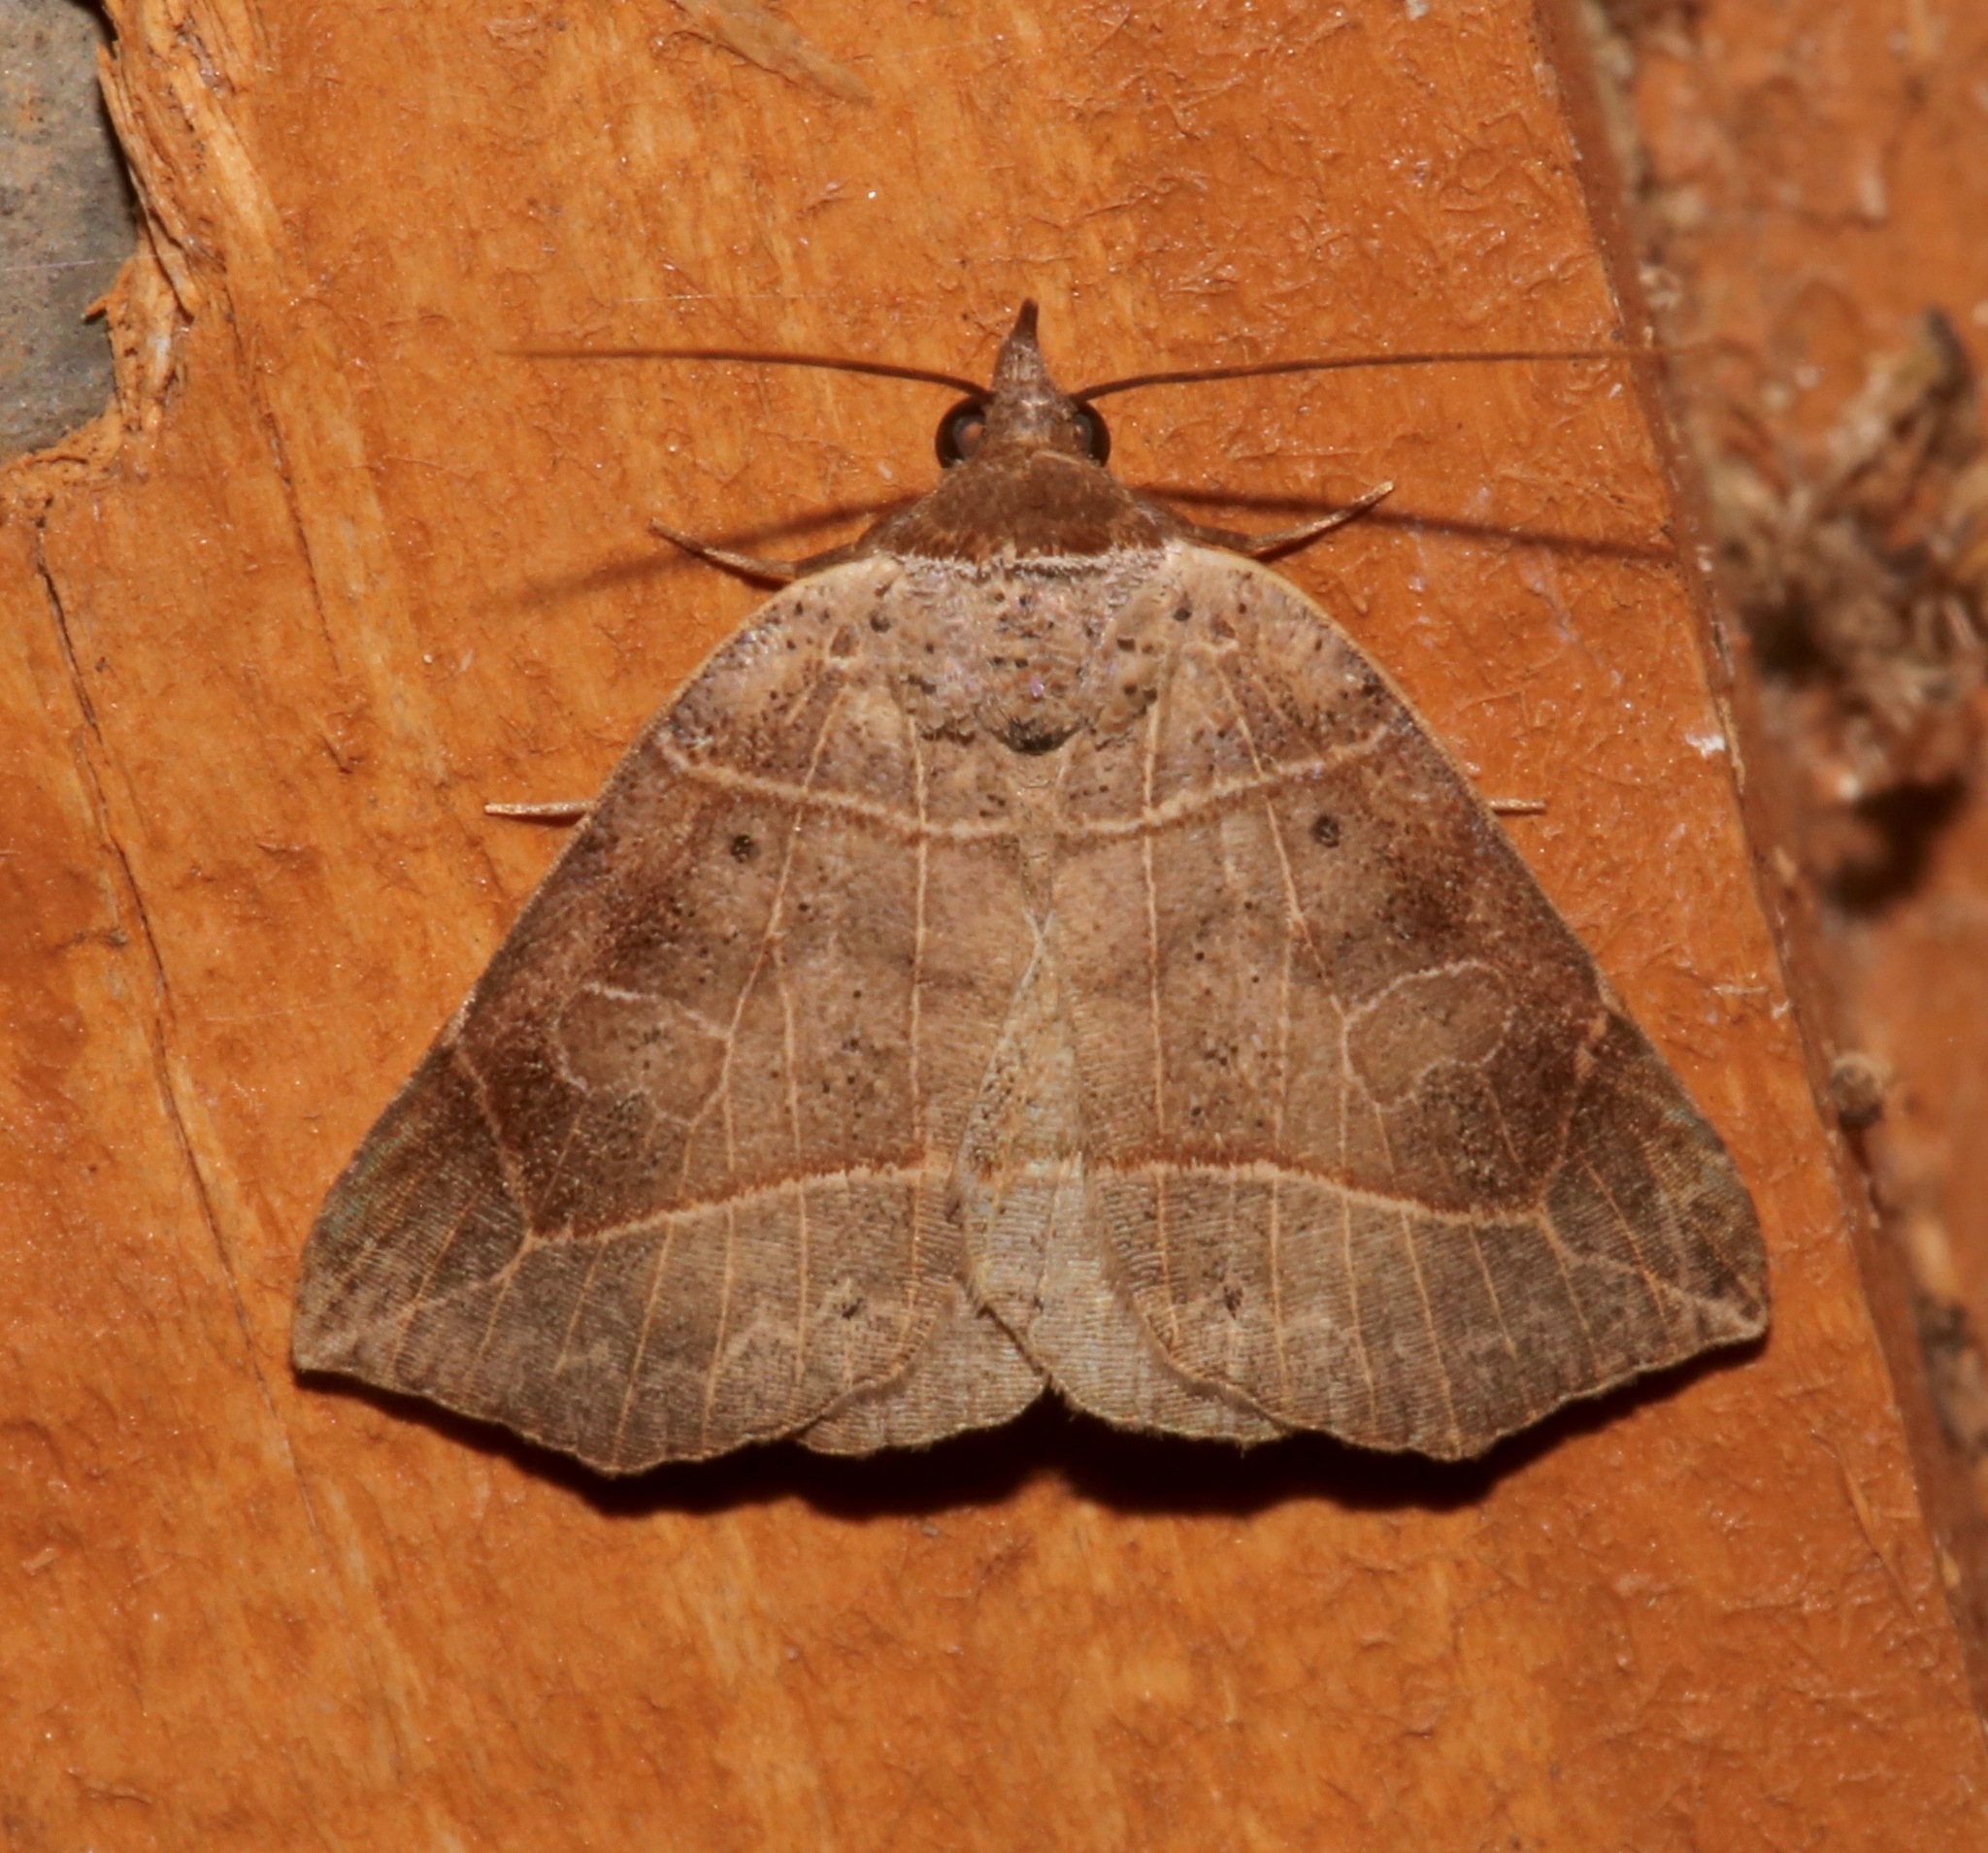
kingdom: Animalia
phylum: Arthropoda
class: Insecta
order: Lepidoptera
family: Erebidae
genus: Isogona
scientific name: Isogona tenuis
